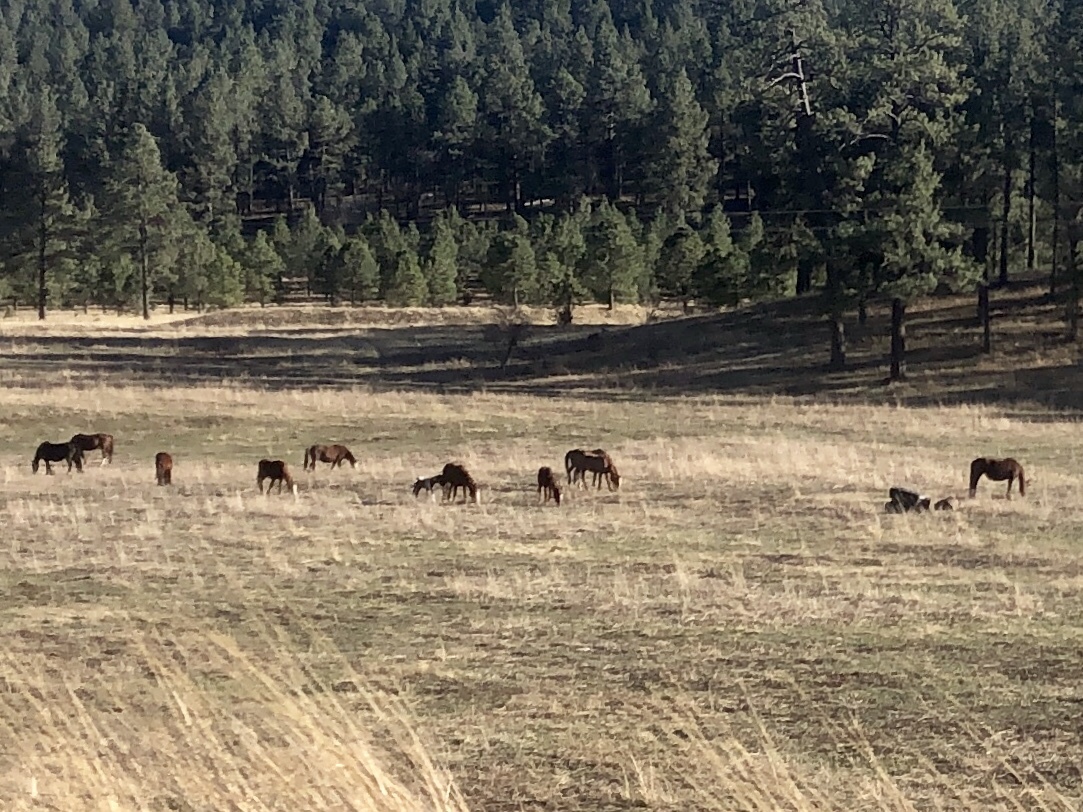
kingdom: Animalia
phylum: Chordata
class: Mammalia
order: Perissodactyla
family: Equidae
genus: Equus
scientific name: Equus caballus
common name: Horse
